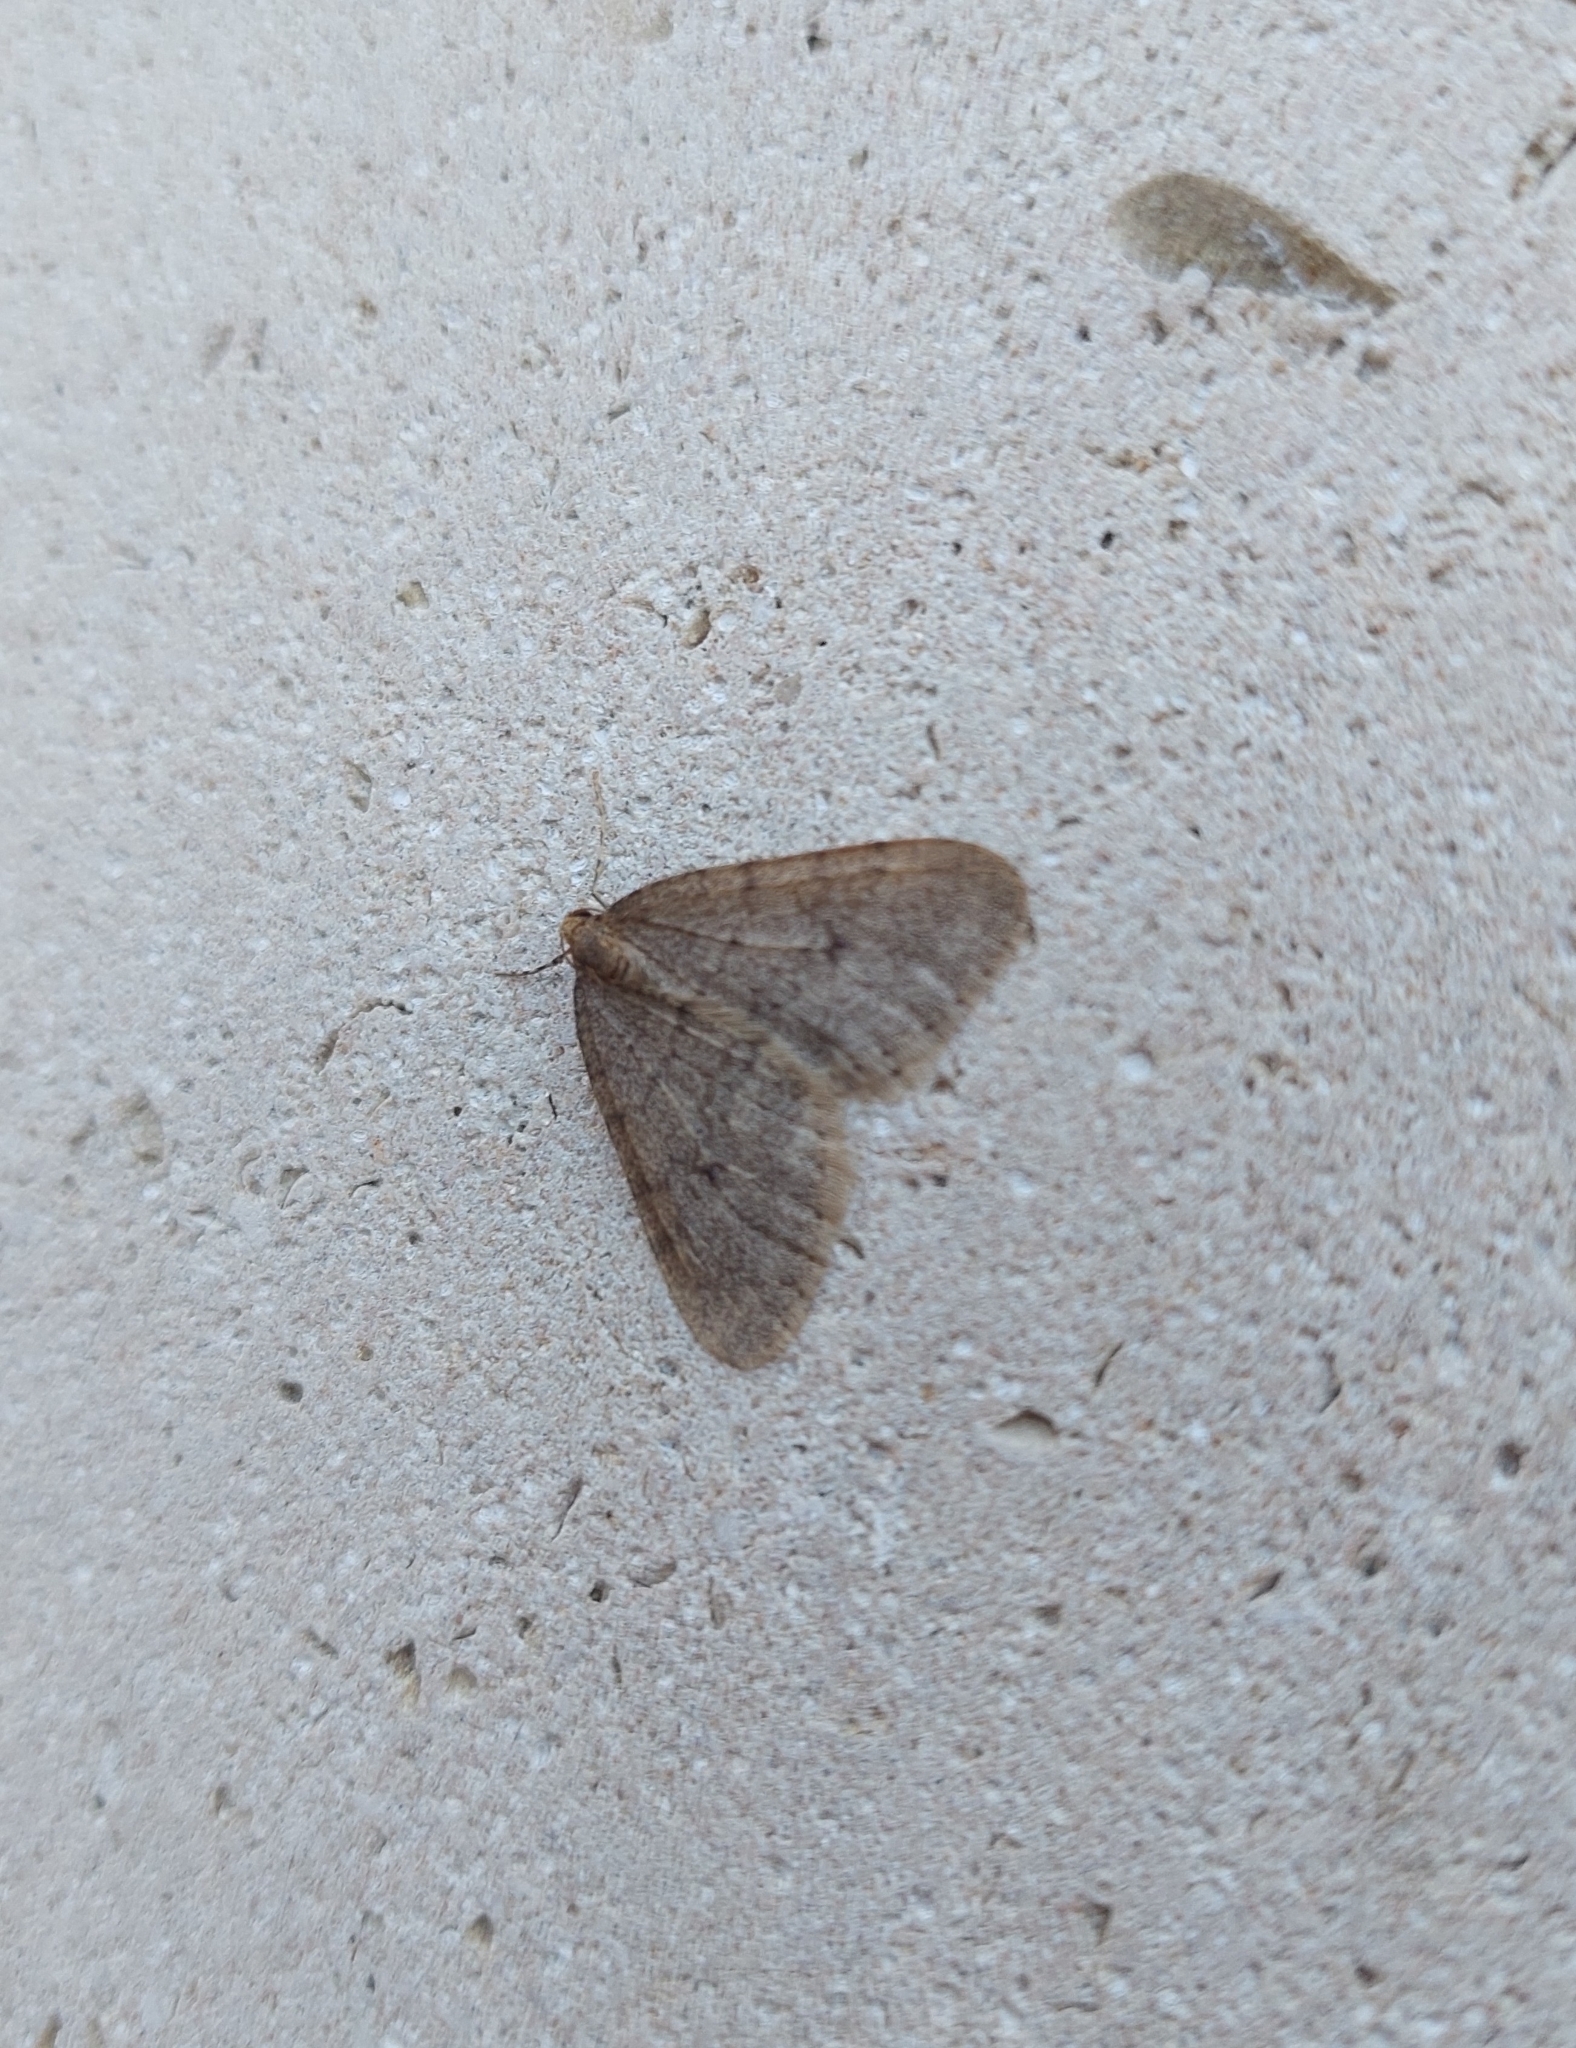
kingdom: Animalia
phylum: Arthropoda
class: Insecta
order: Lepidoptera
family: Geometridae
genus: Operophtera
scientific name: Operophtera brumata
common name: Winter moth
